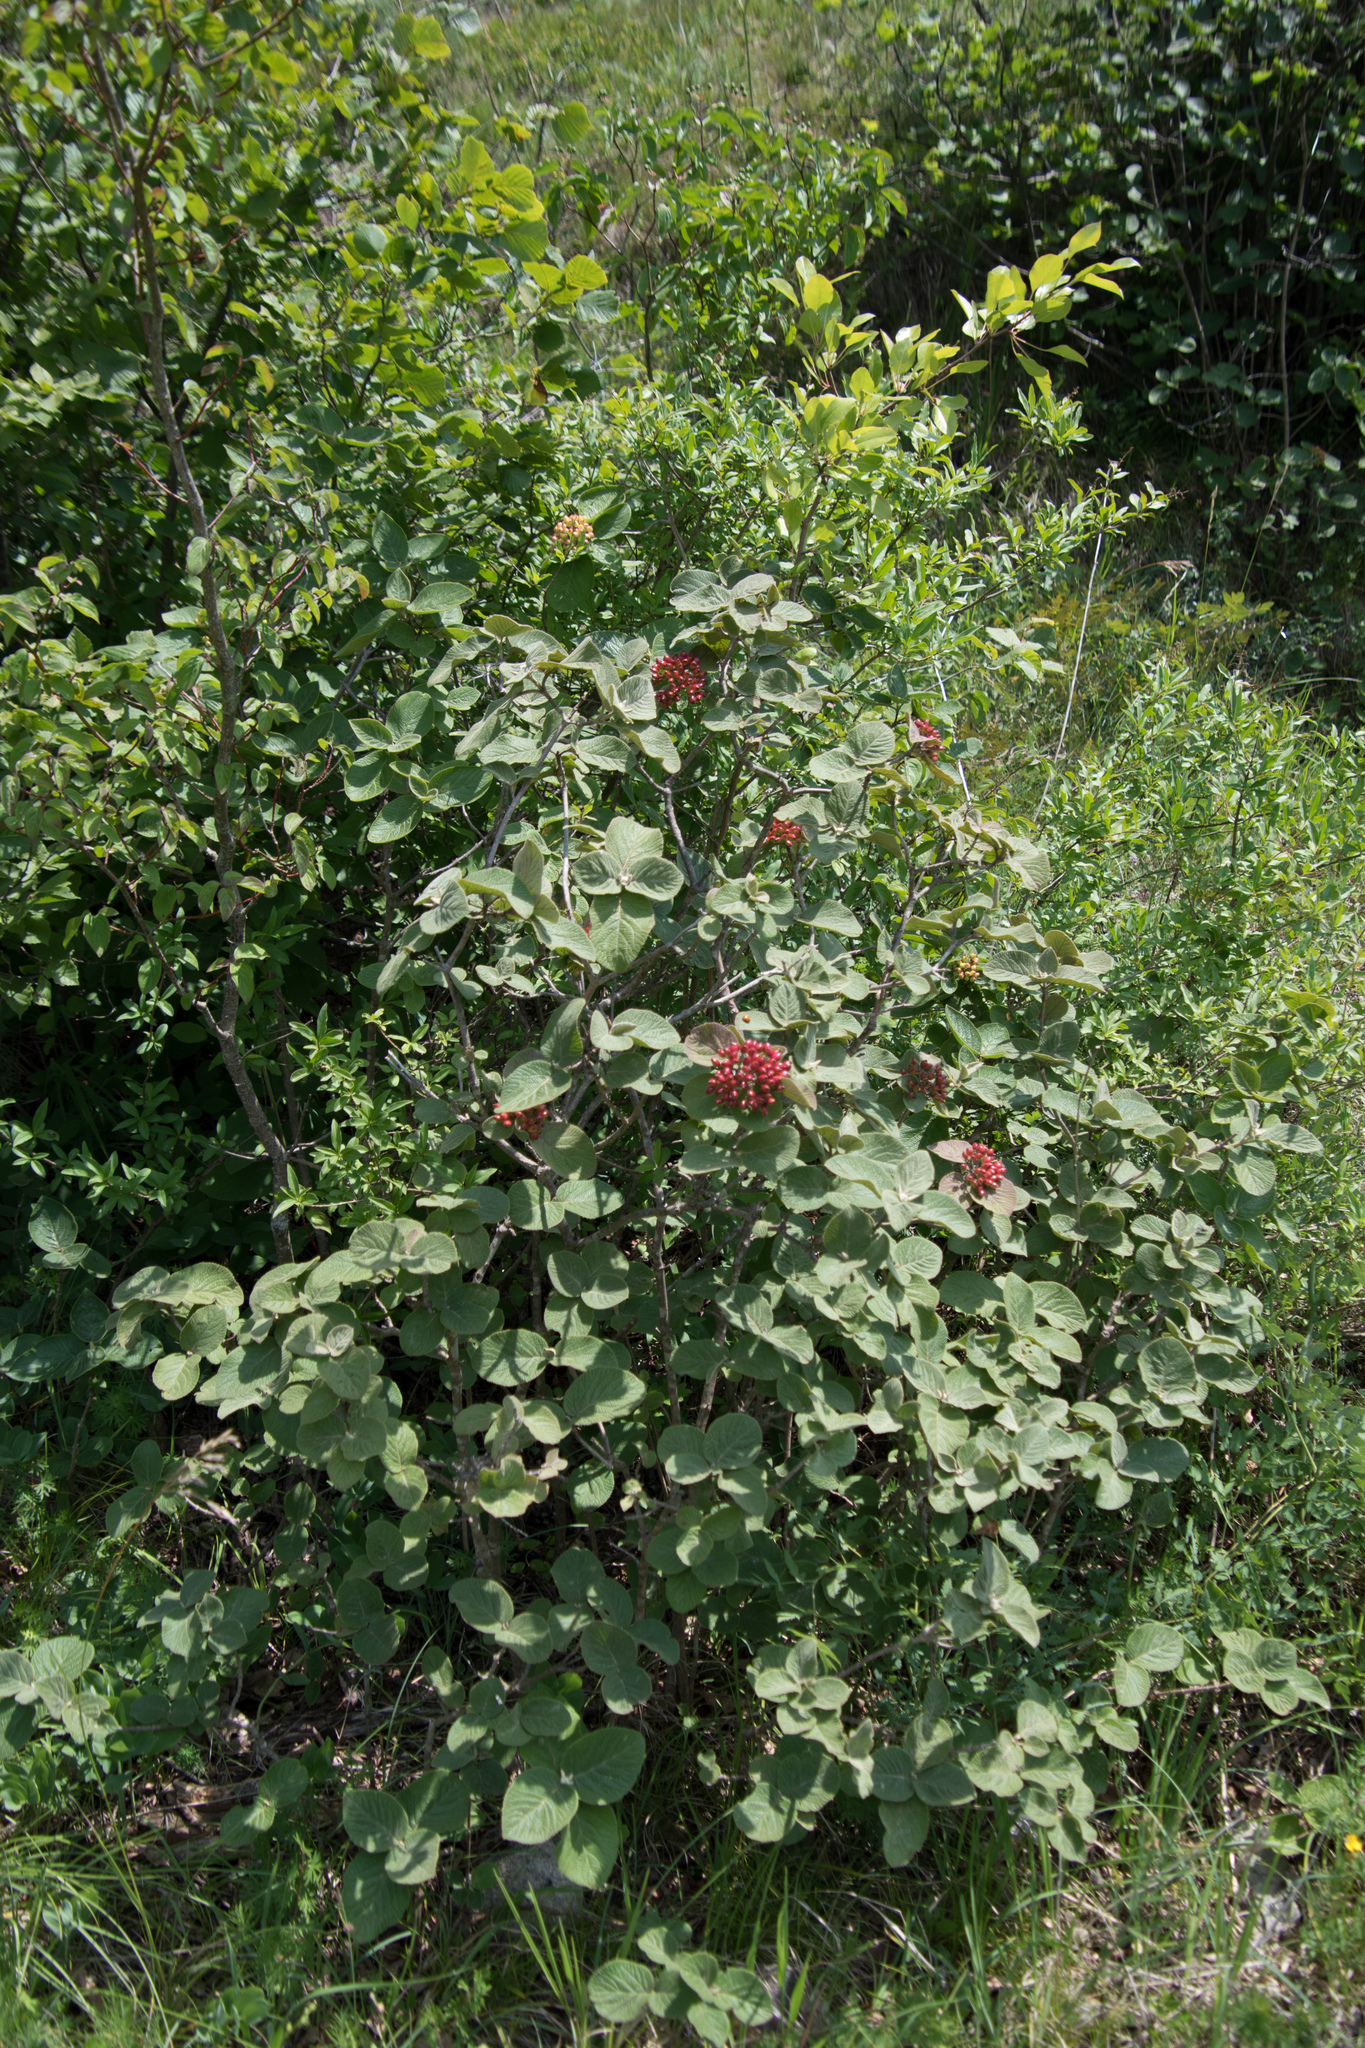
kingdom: Plantae
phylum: Tracheophyta
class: Magnoliopsida
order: Dipsacales
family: Viburnaceae
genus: Viburnum
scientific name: Viburnum lantana
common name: Wayfaring tree
